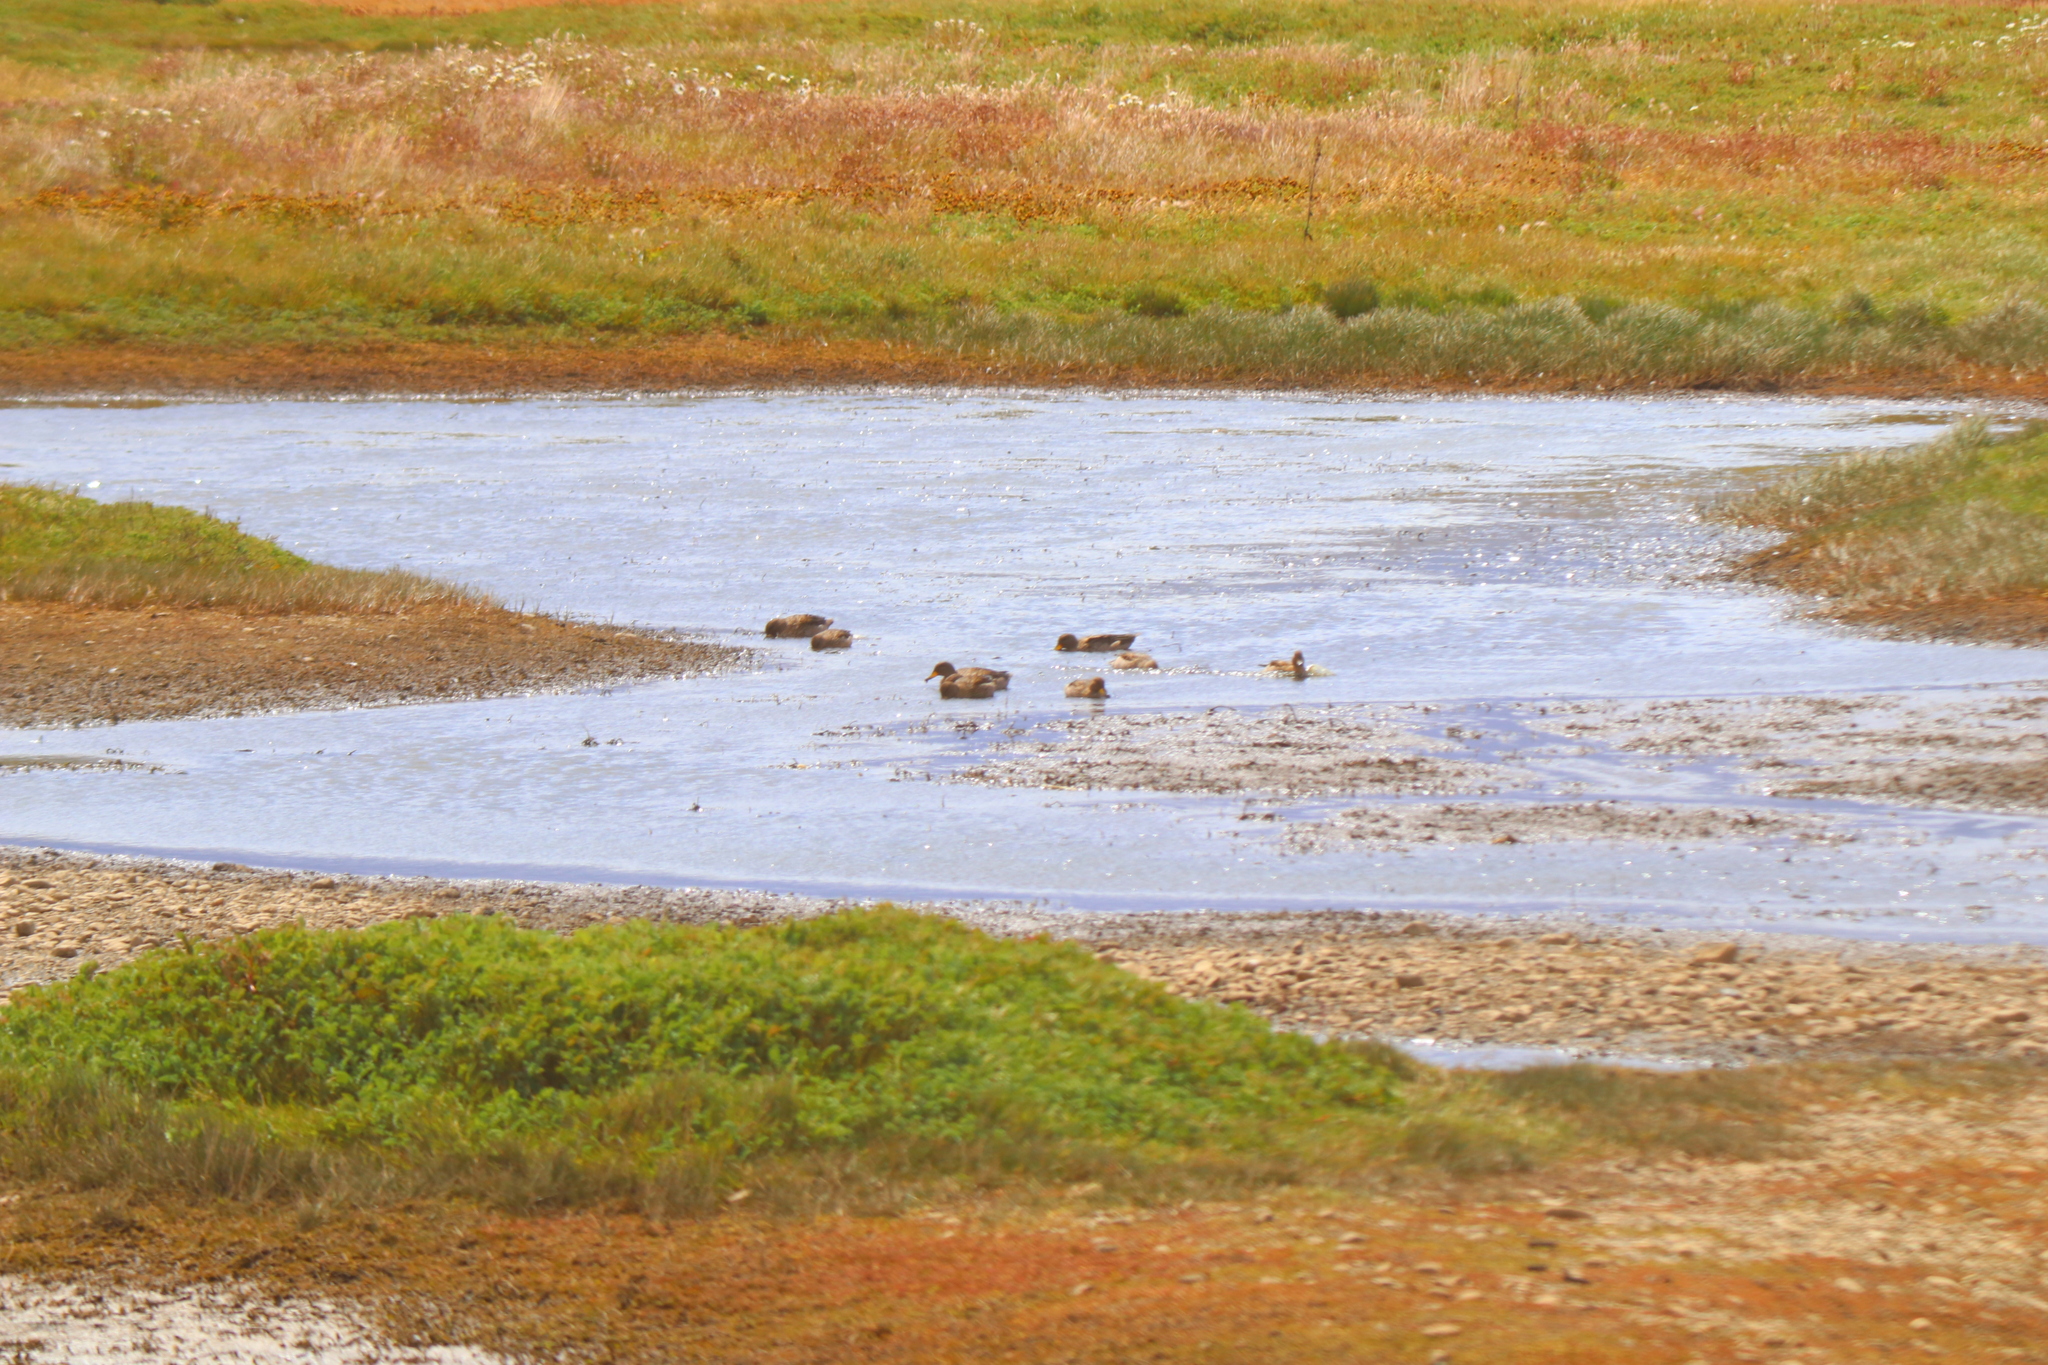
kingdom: Animalia
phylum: Chordata
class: Aves
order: Anseriformes
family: Anatidae
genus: Anas
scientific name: Anas flavirostris
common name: Yellow-billed teal
